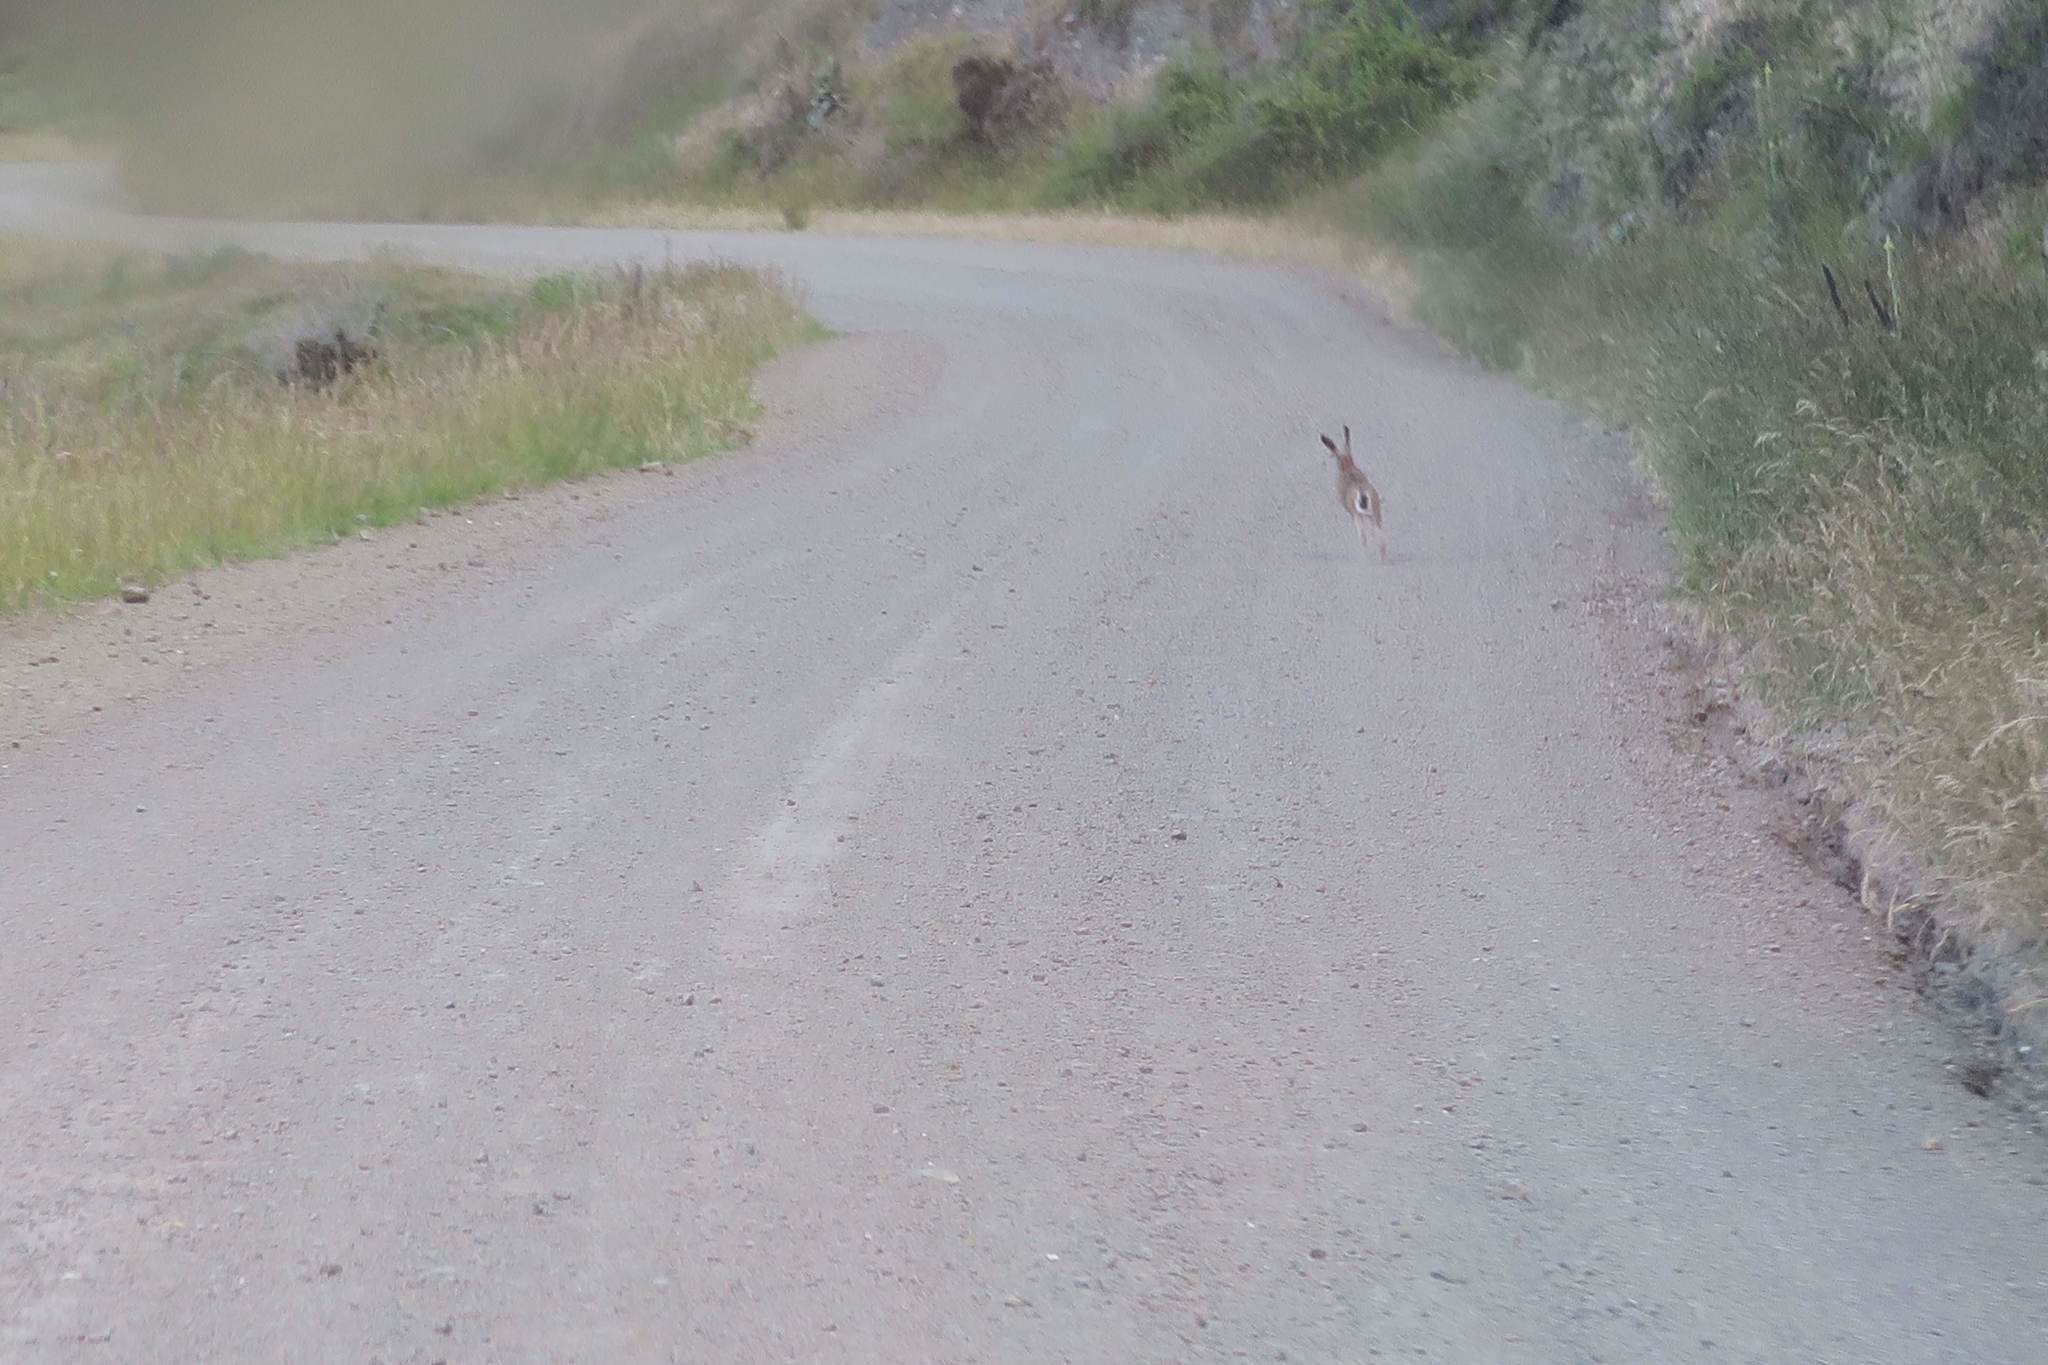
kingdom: Animalia
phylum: Chordata
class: Mammalia
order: Lagomorpha
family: Leporidae
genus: Lepus
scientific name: Lepus europaeus
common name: European hare
